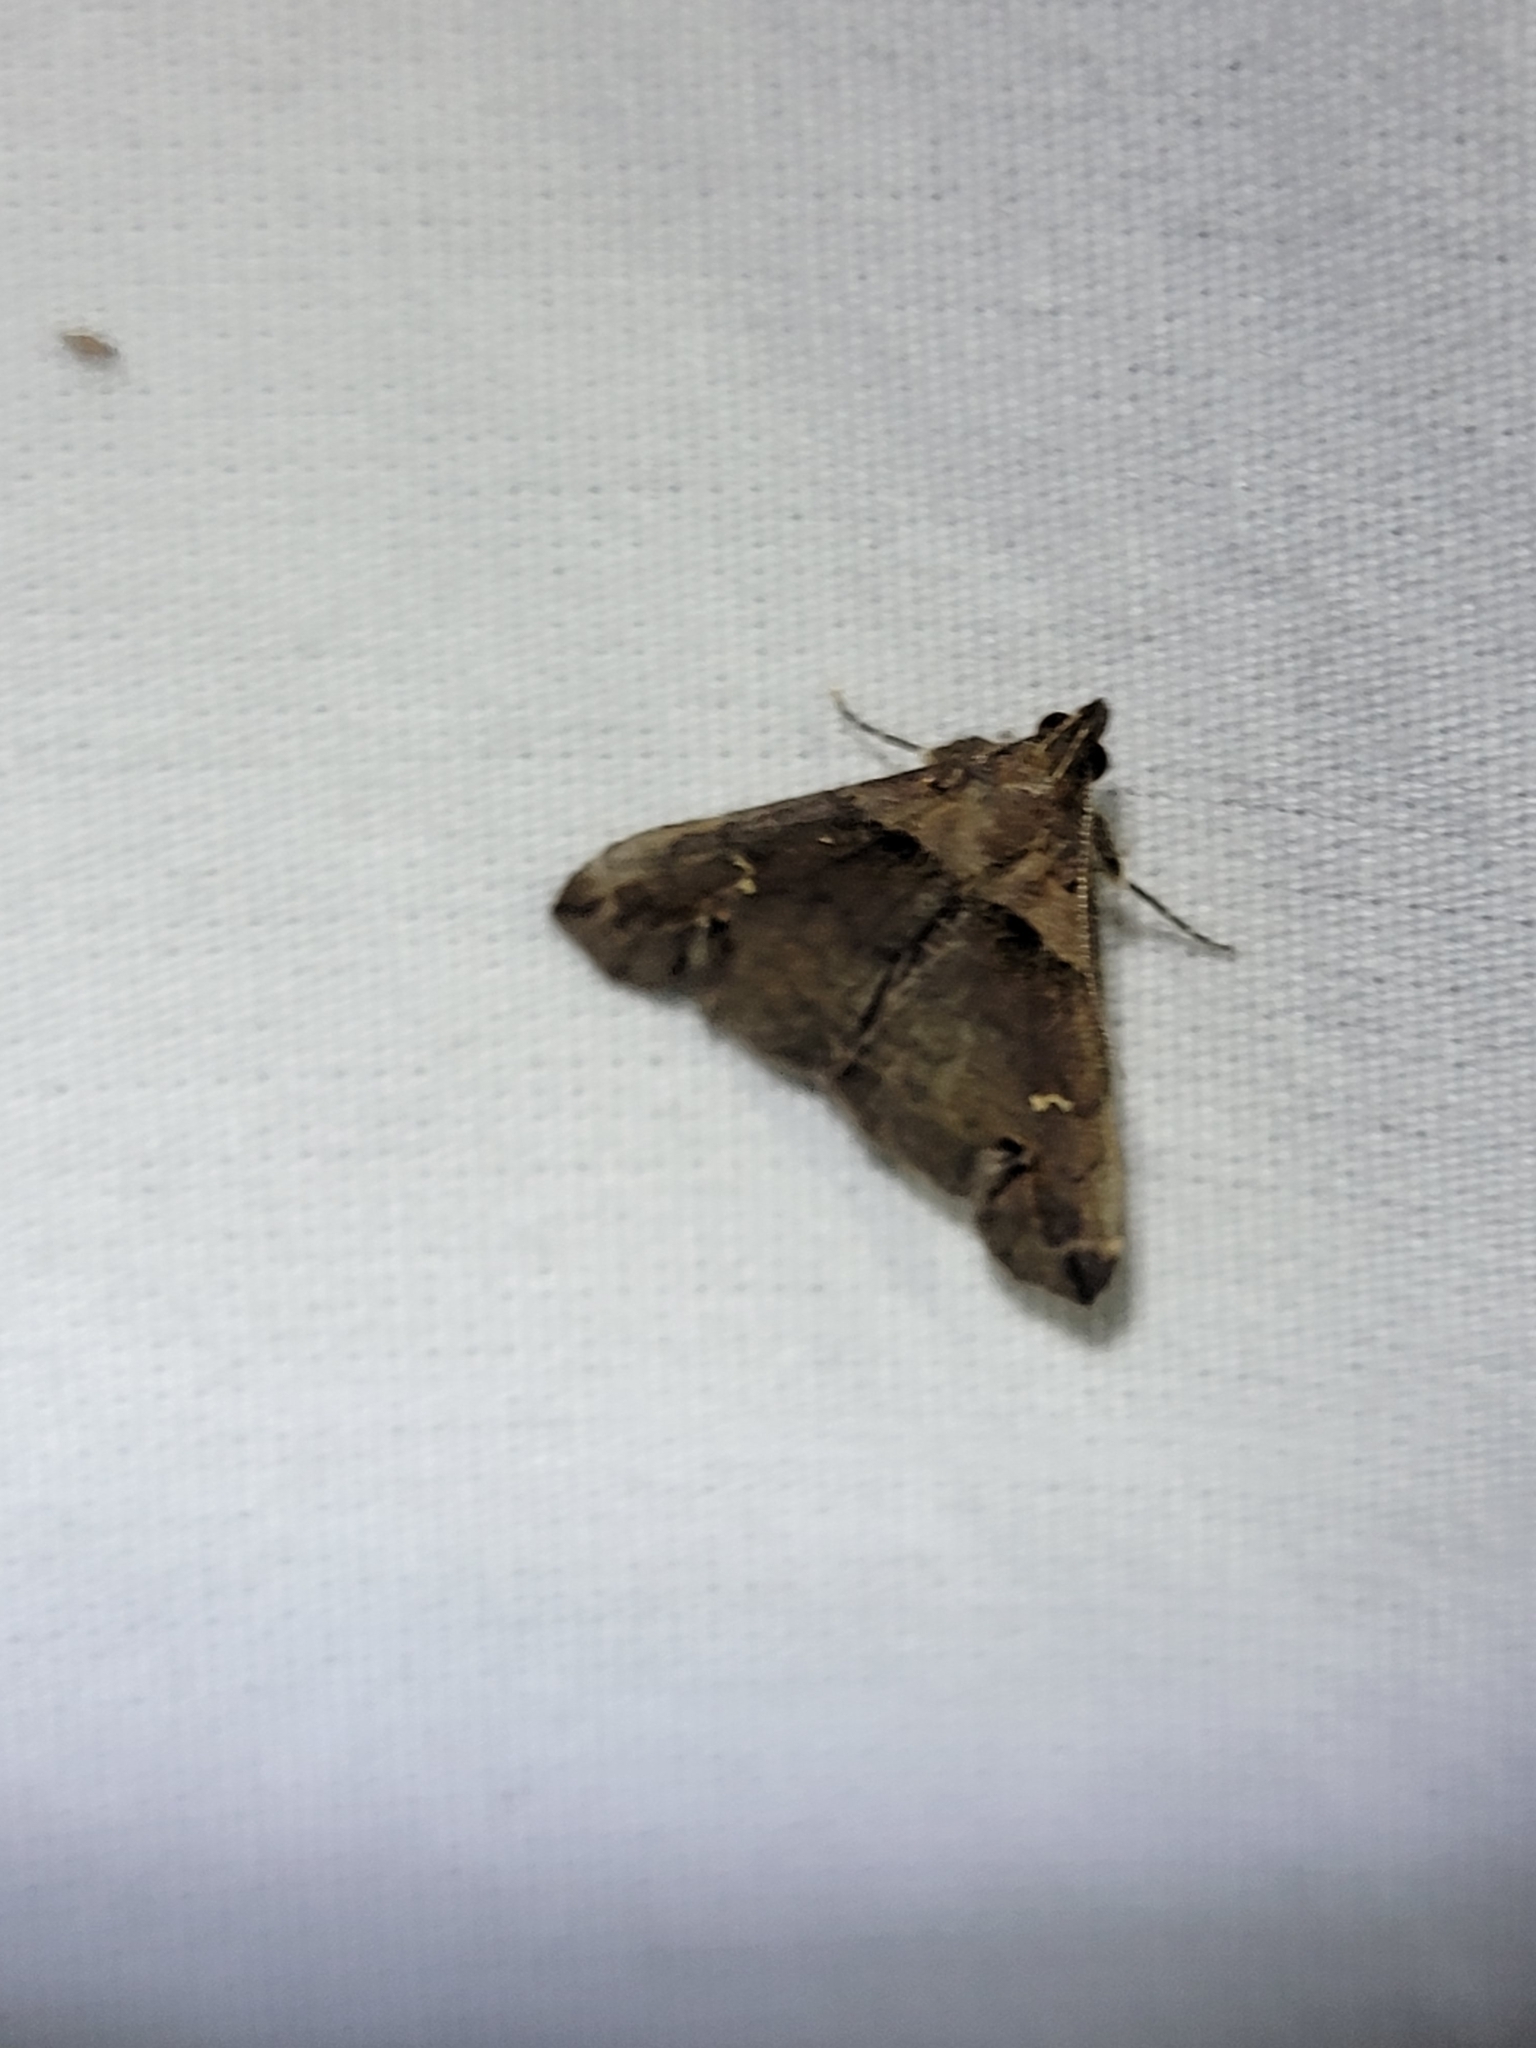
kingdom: Animalia
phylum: Arthropoda
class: Insecta
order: Lepidoptera
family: Erebidae
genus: Lascoria
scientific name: Lascoria ambigualis
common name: Ambiguous moth
